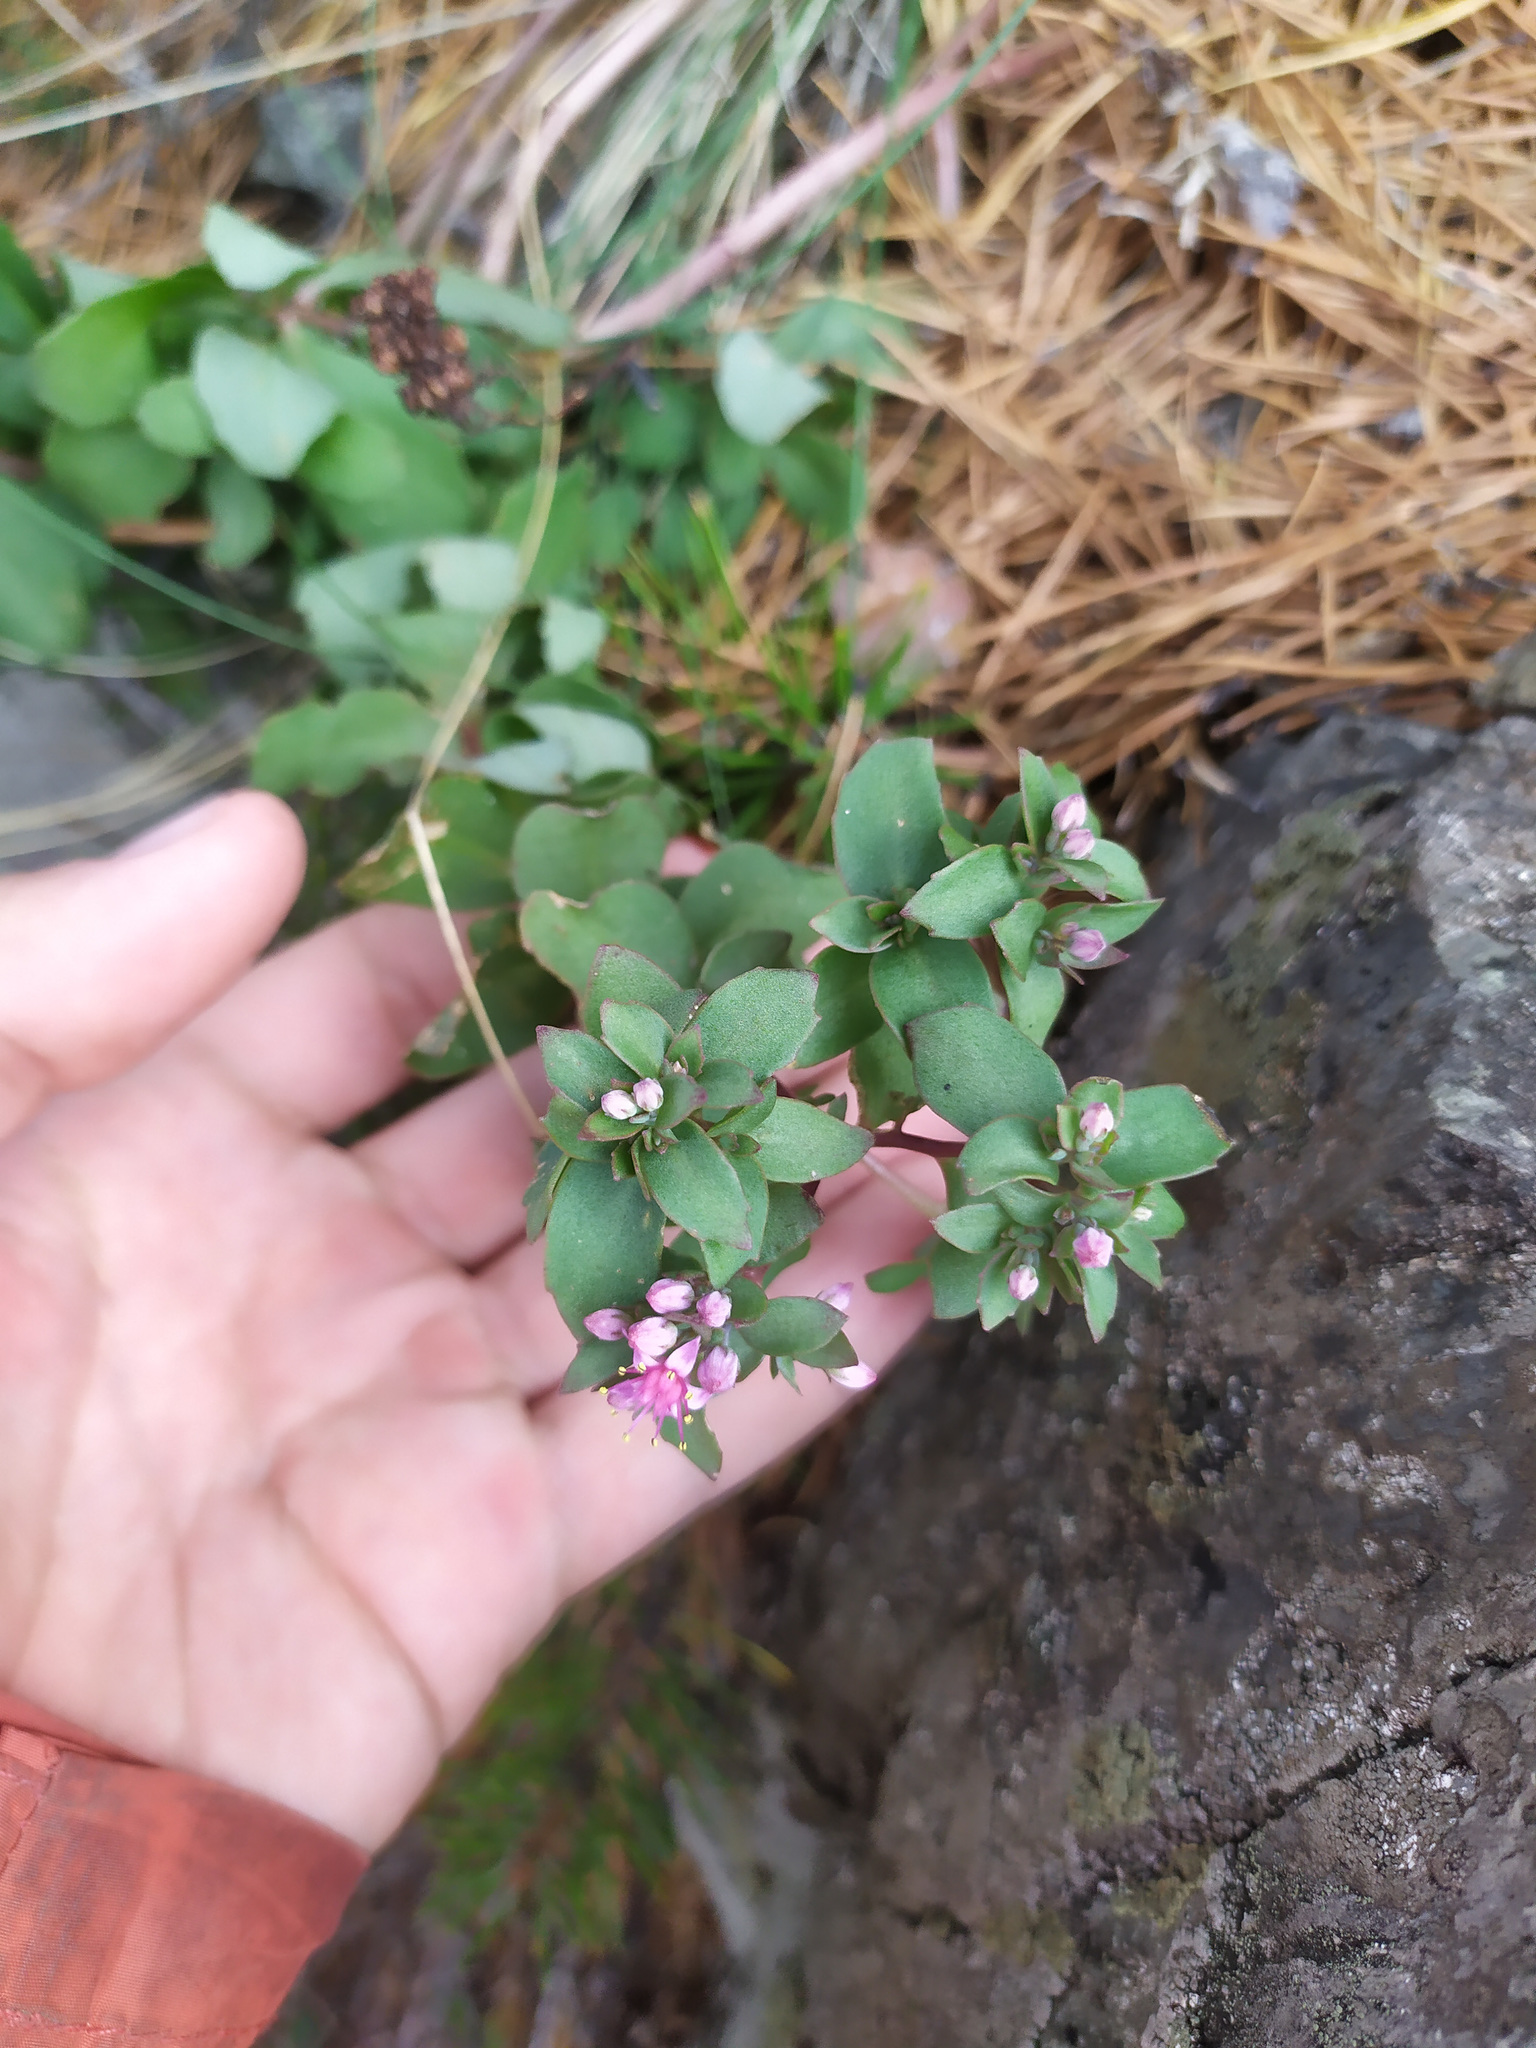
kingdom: Plantae
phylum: Tracheophyta
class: Magnoliopsida
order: Saxifragales
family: Crassulaceae
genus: Hylotelephium
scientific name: Hylotelephium telephium
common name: Live-forever
